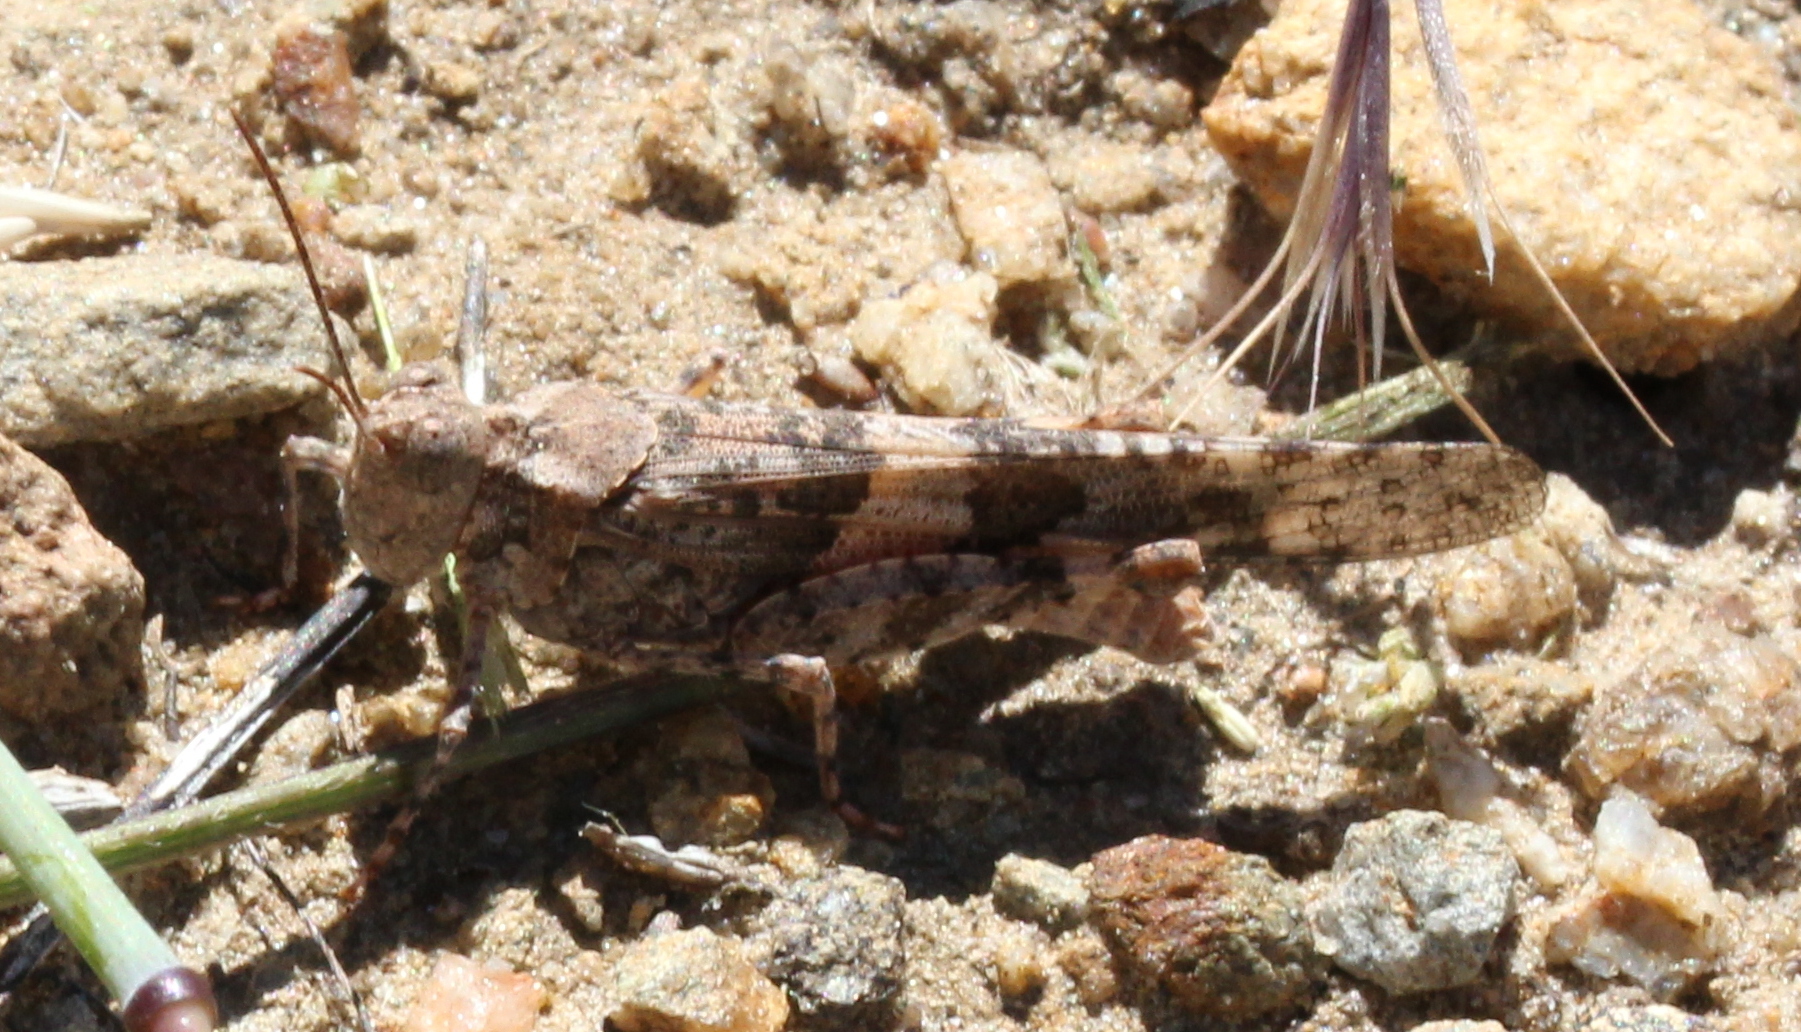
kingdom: Animalia
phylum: Arthropoda
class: Insecta
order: Orthoptera
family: Acrididae
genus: Trimerotropis
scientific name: Trimerotropis pallidipennis
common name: Pallid-winged grasshopper
